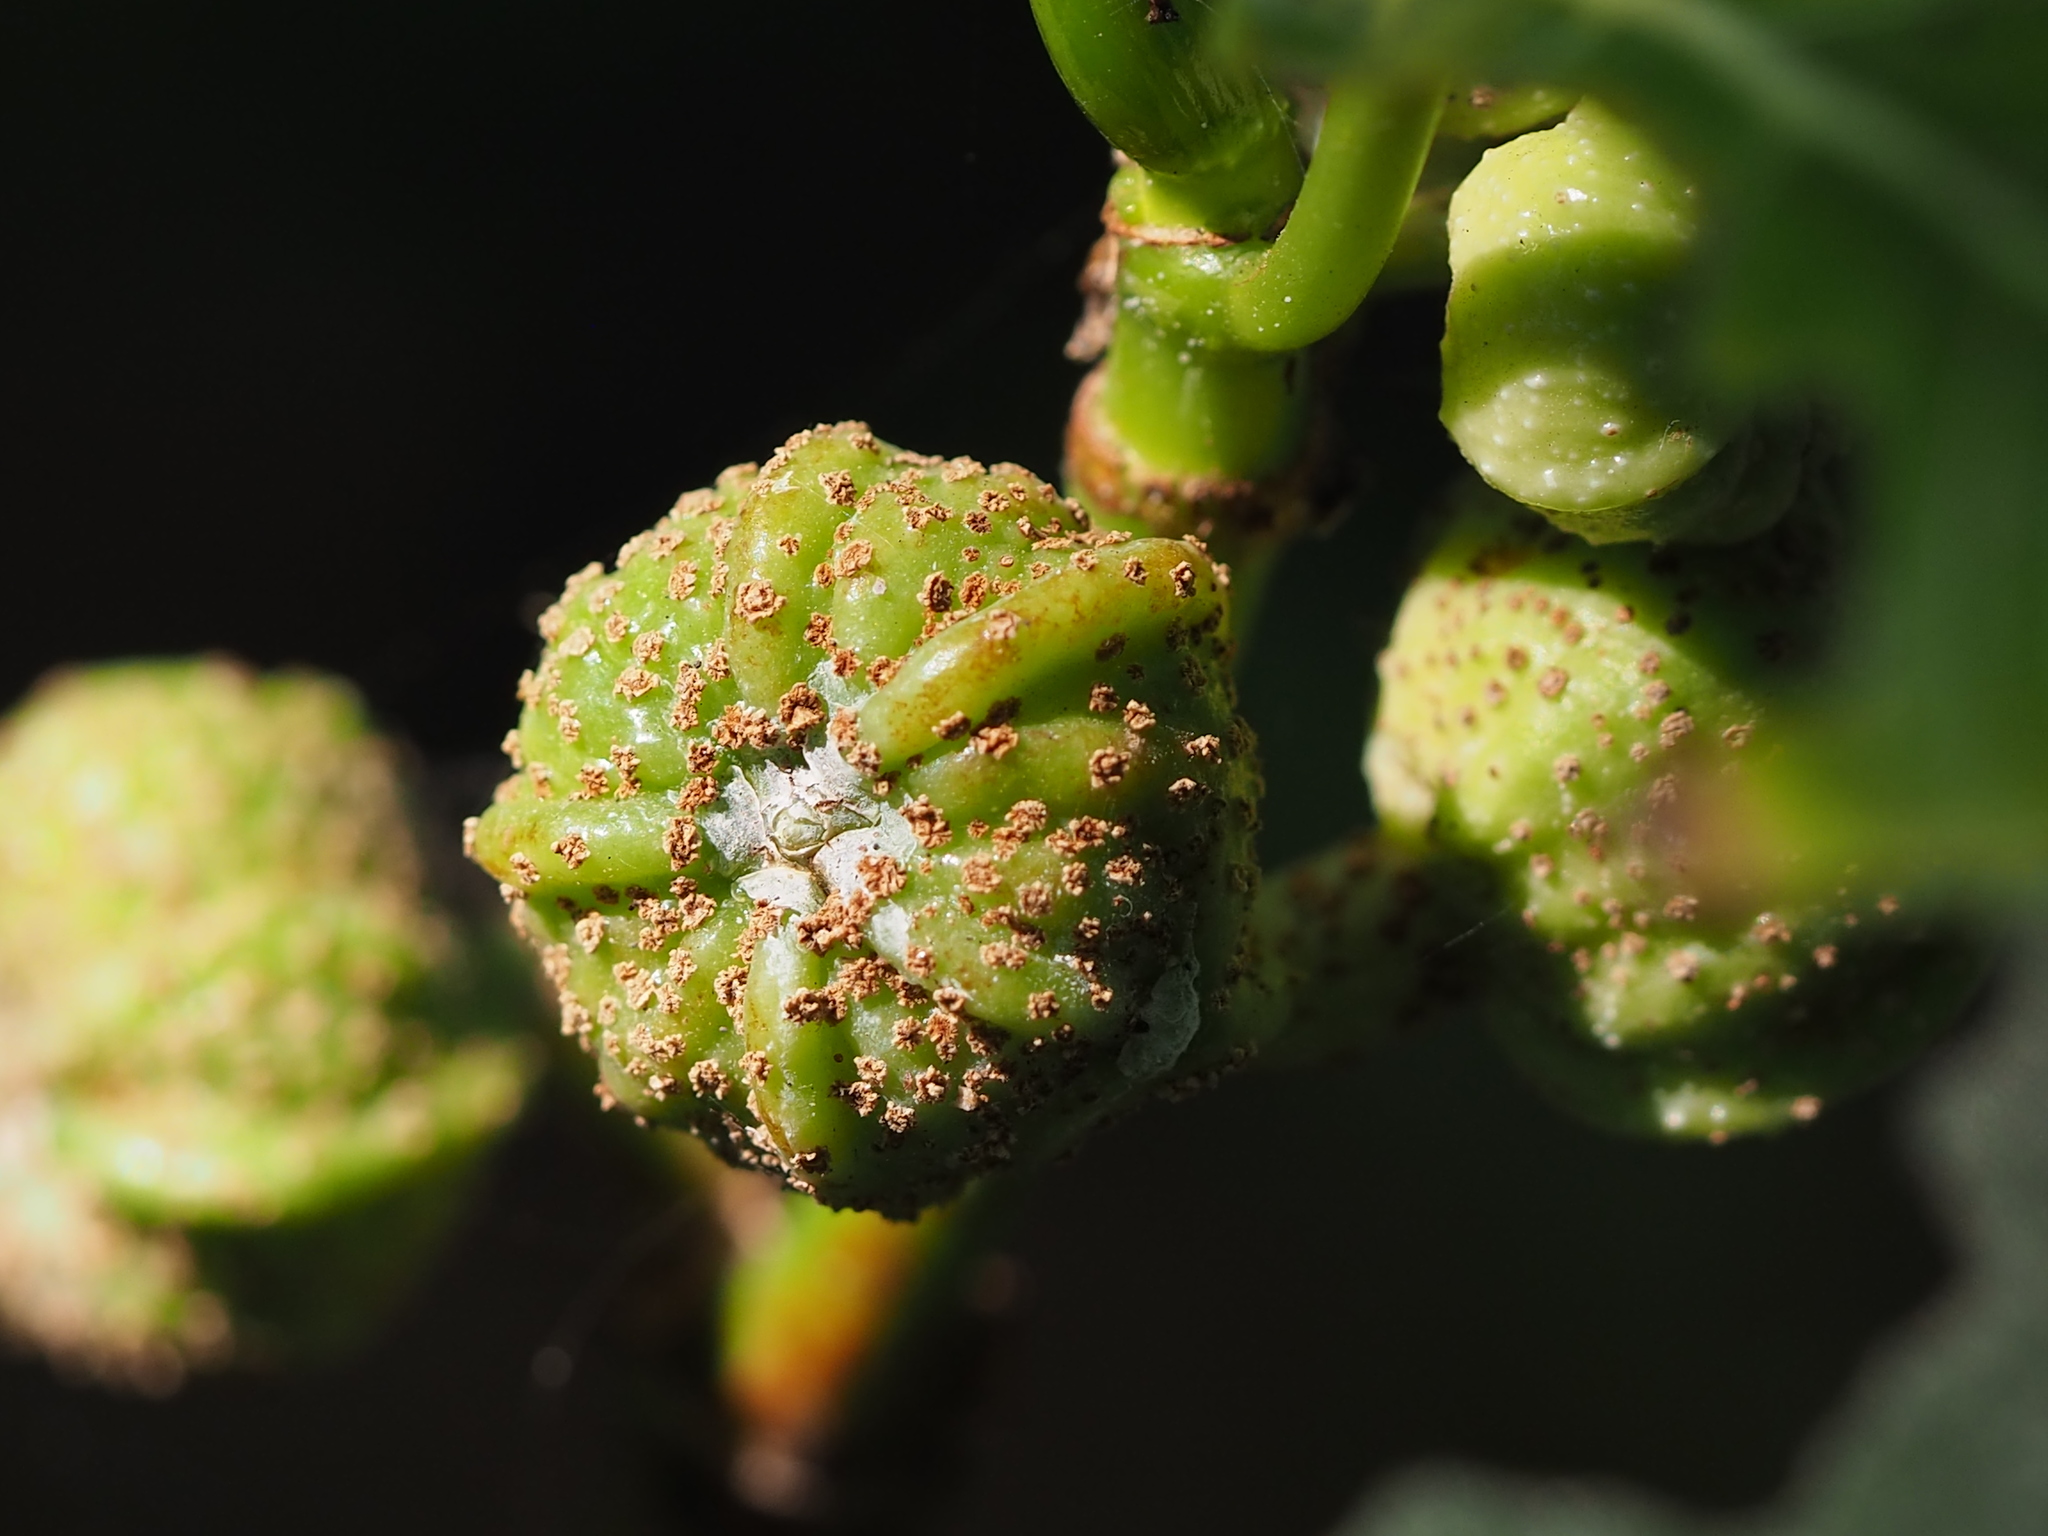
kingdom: Plantae
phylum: Tracheophyta
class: Magnoliopsida
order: Rosales
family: Moraceae
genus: Ficus
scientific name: Ficus septica
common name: Septic fig
